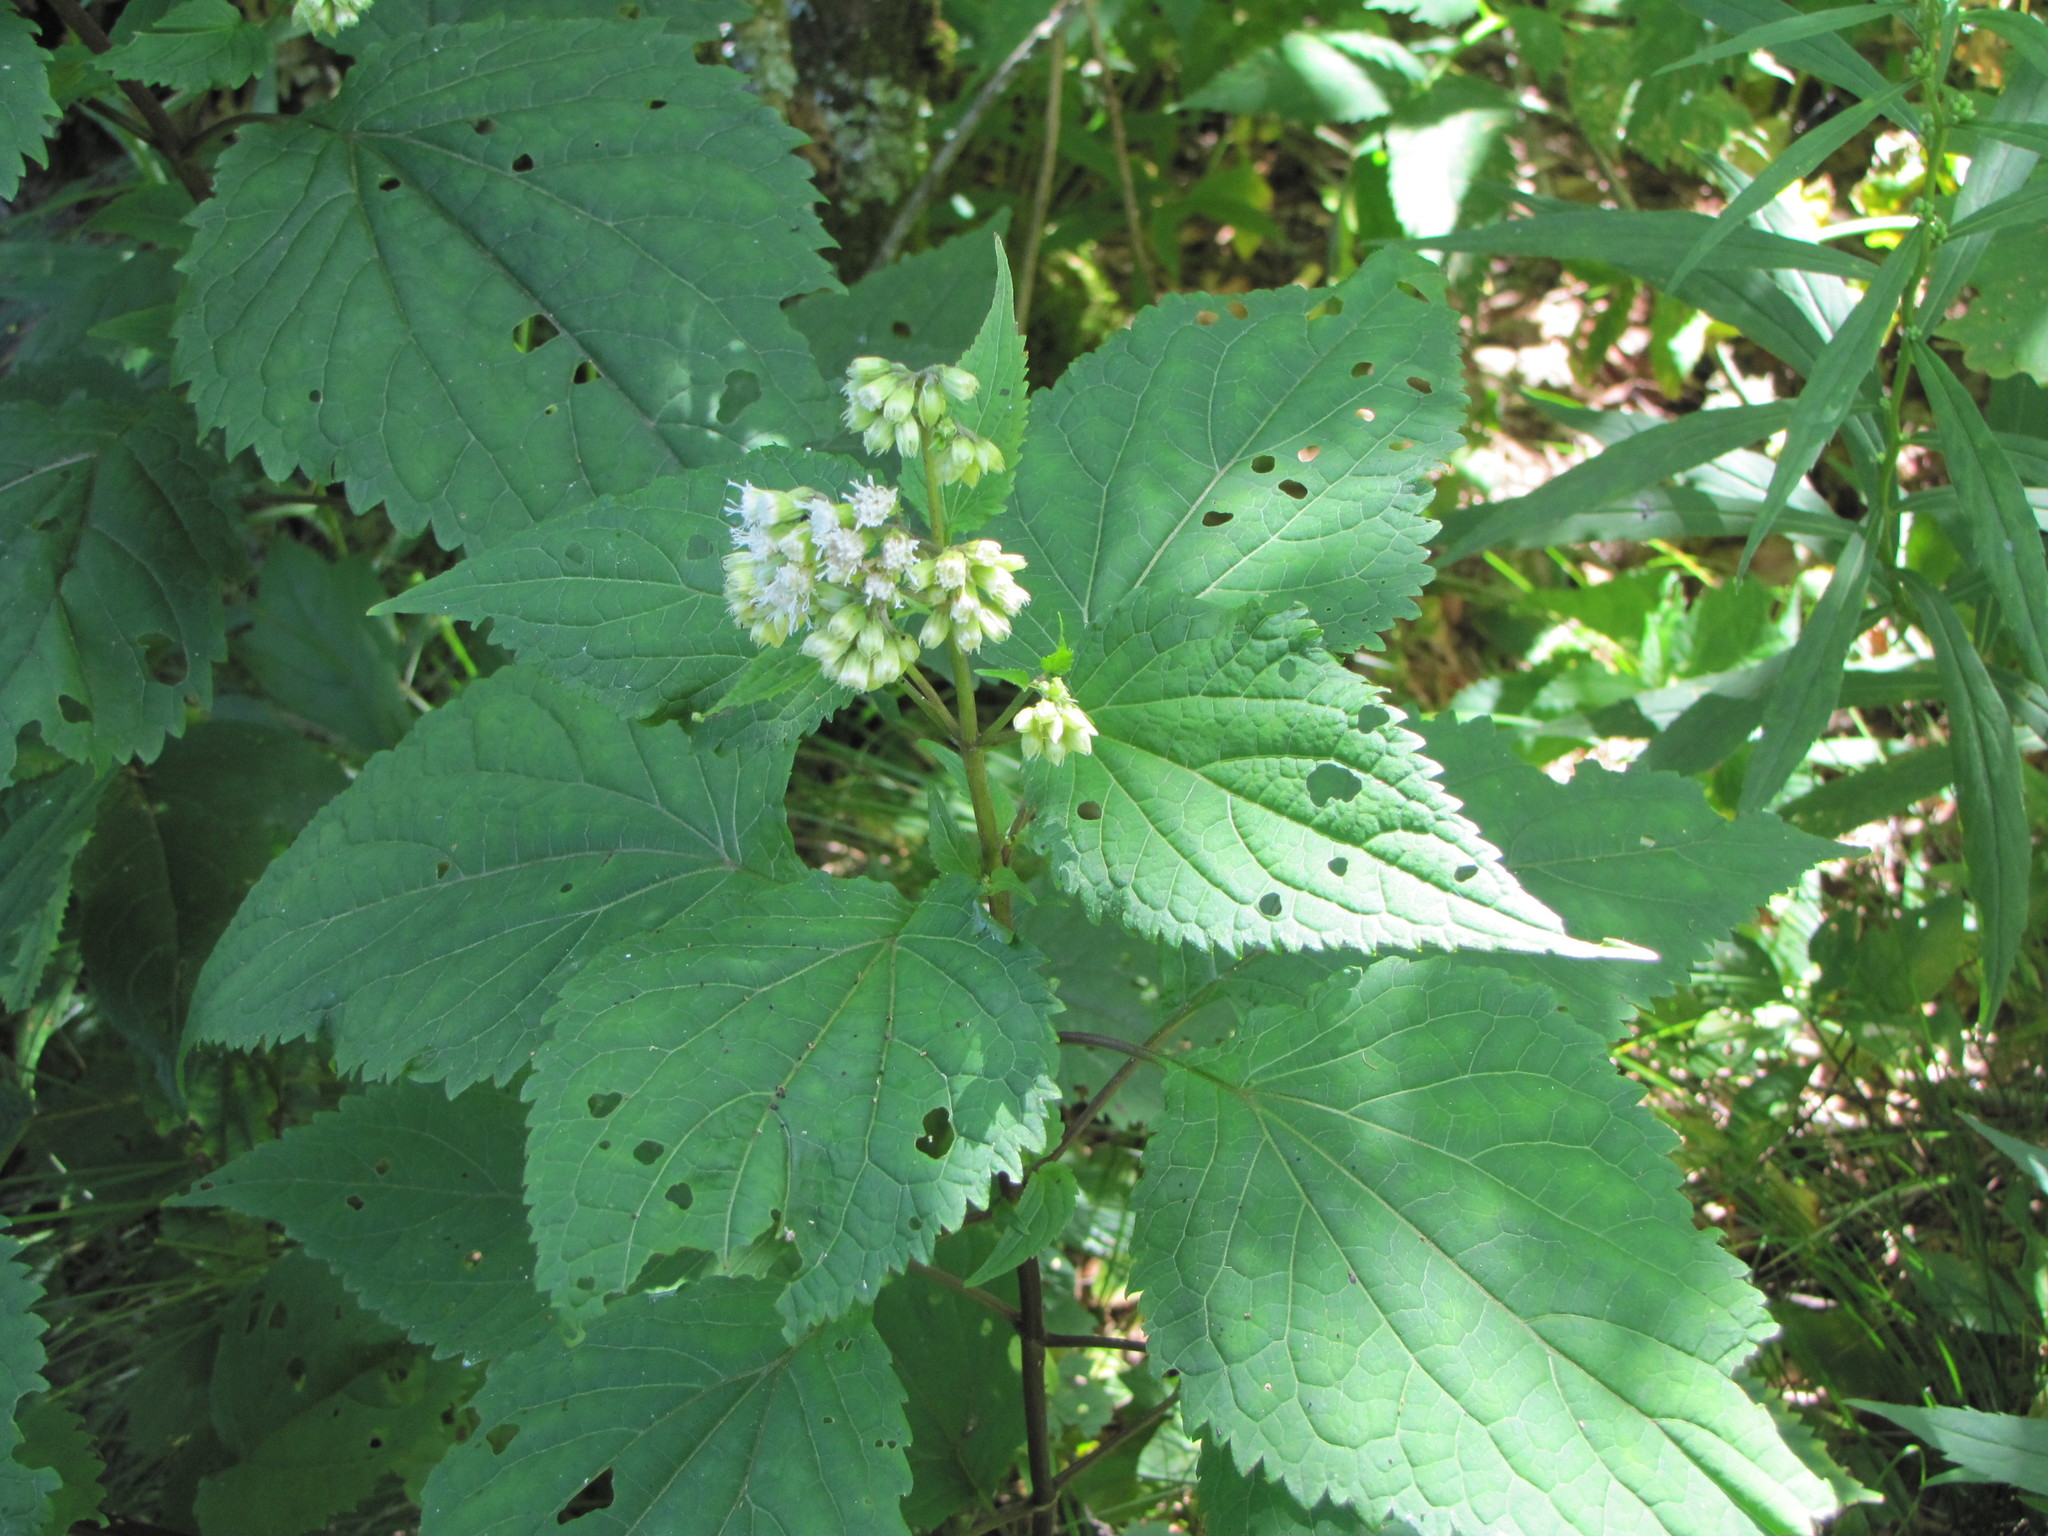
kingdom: Plantae
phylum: Tracheophyta
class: Magnoliopsida
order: Asterales
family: Asteraceae
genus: Ageratina
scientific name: Ageratina altissima
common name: White snakeroot
